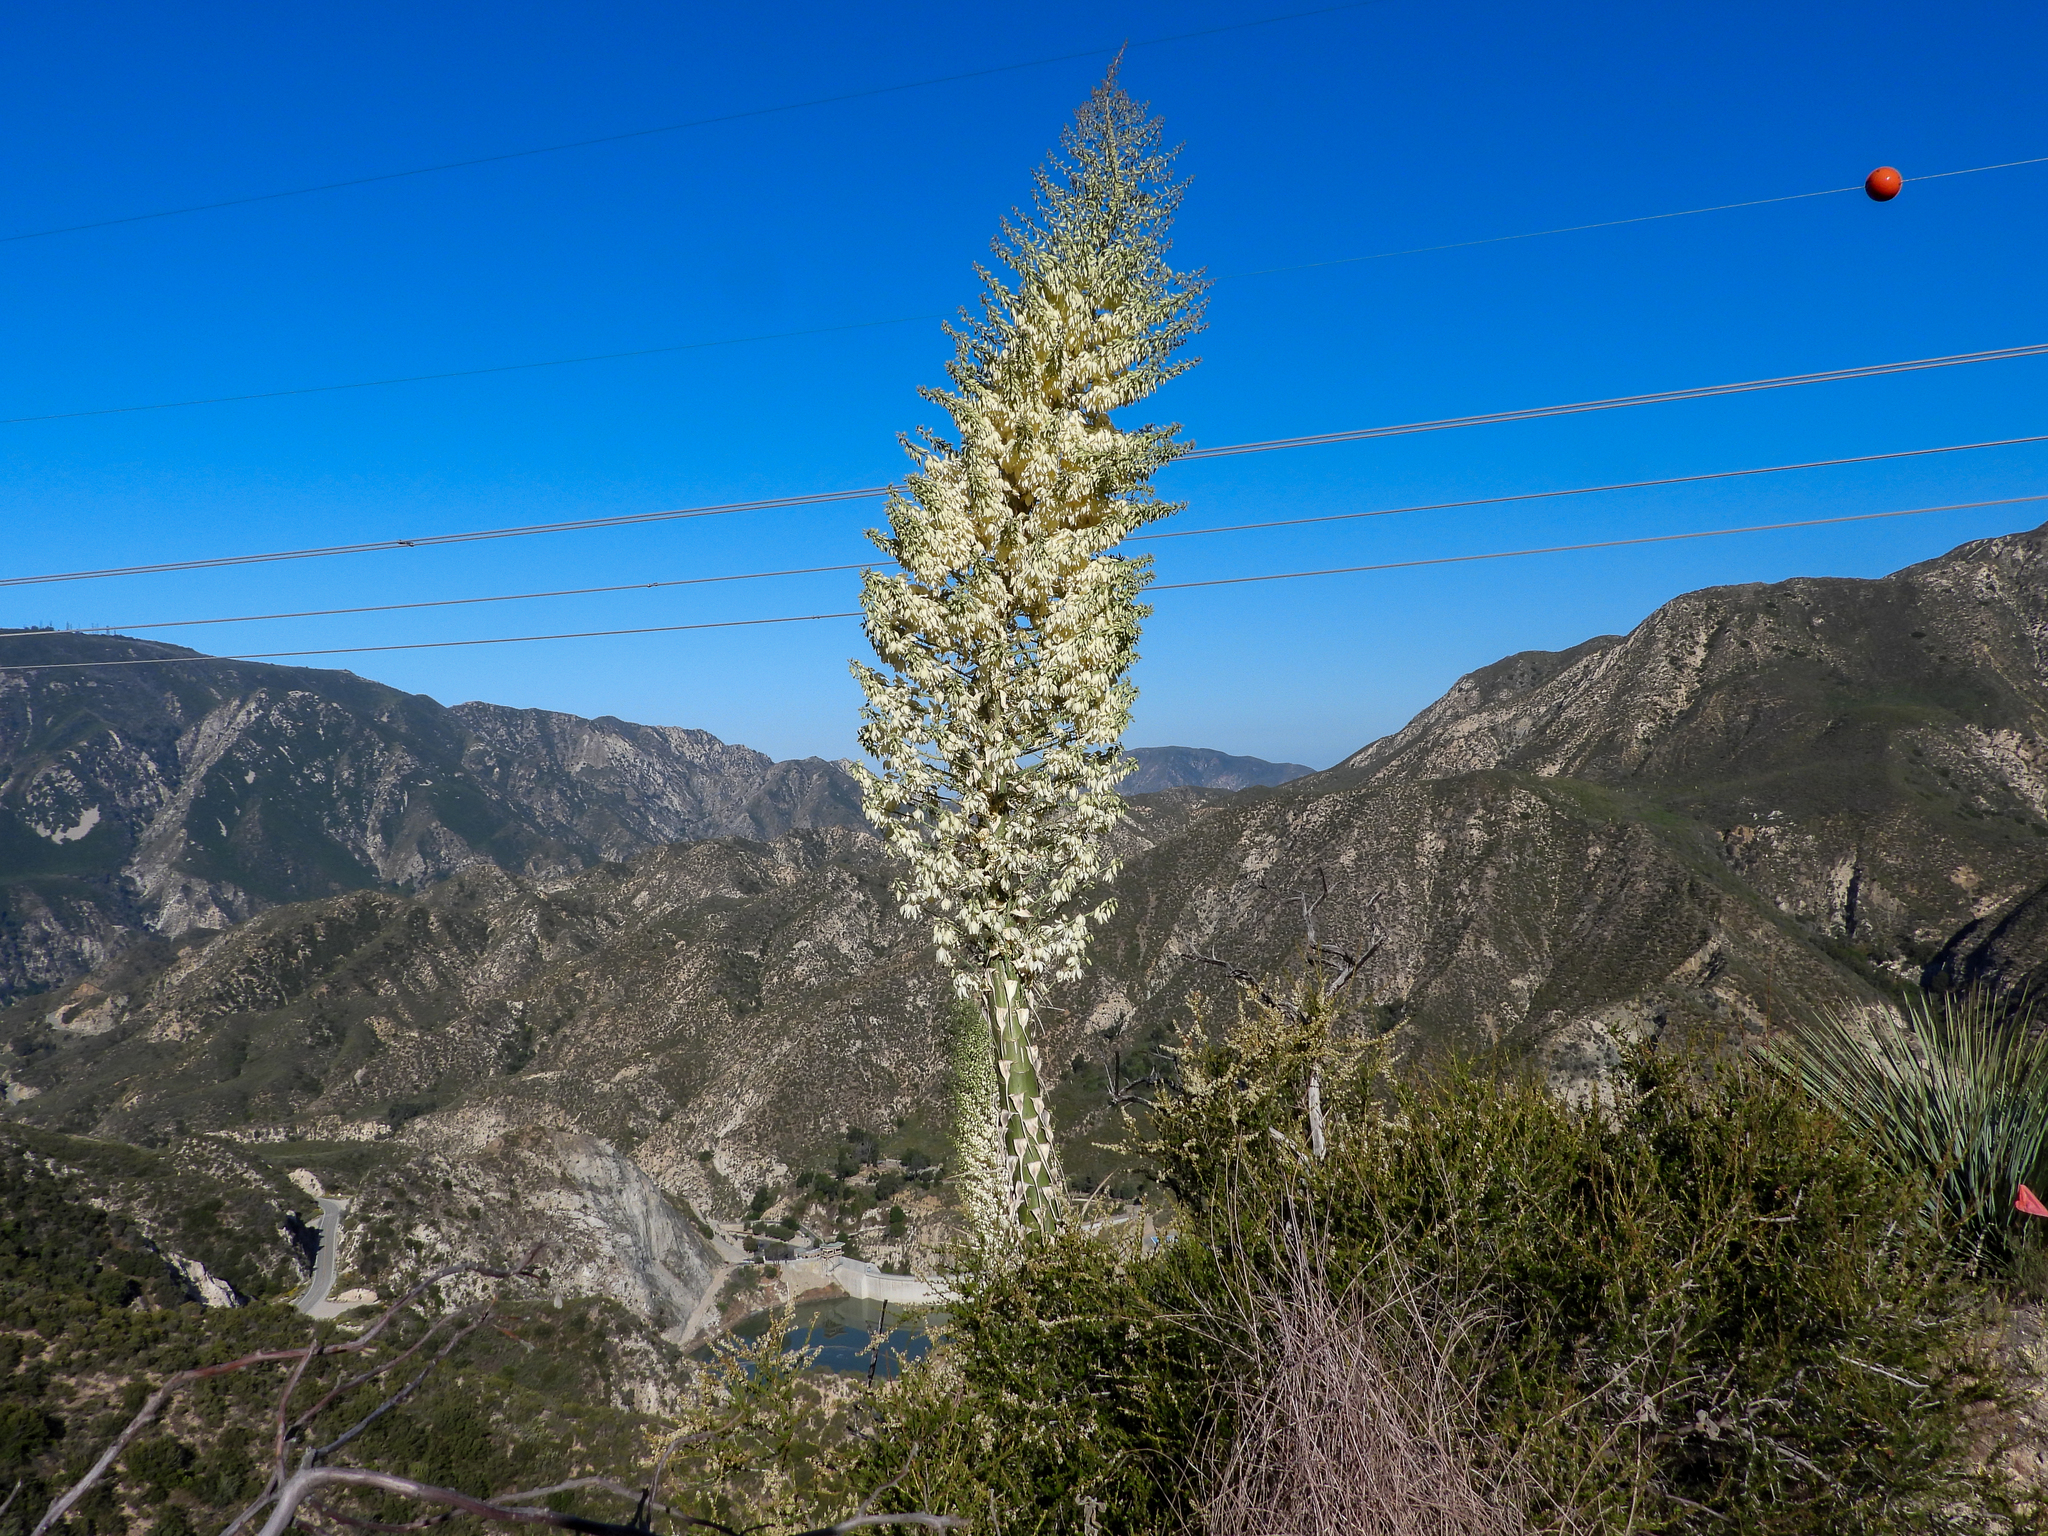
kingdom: Plantae
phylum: Tracheophyta
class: Liliopsida
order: Asparagales
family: Asparagaceae
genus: Hesperoyucca
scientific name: Hesperoyucca whipplei
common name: Our lord's-candle
